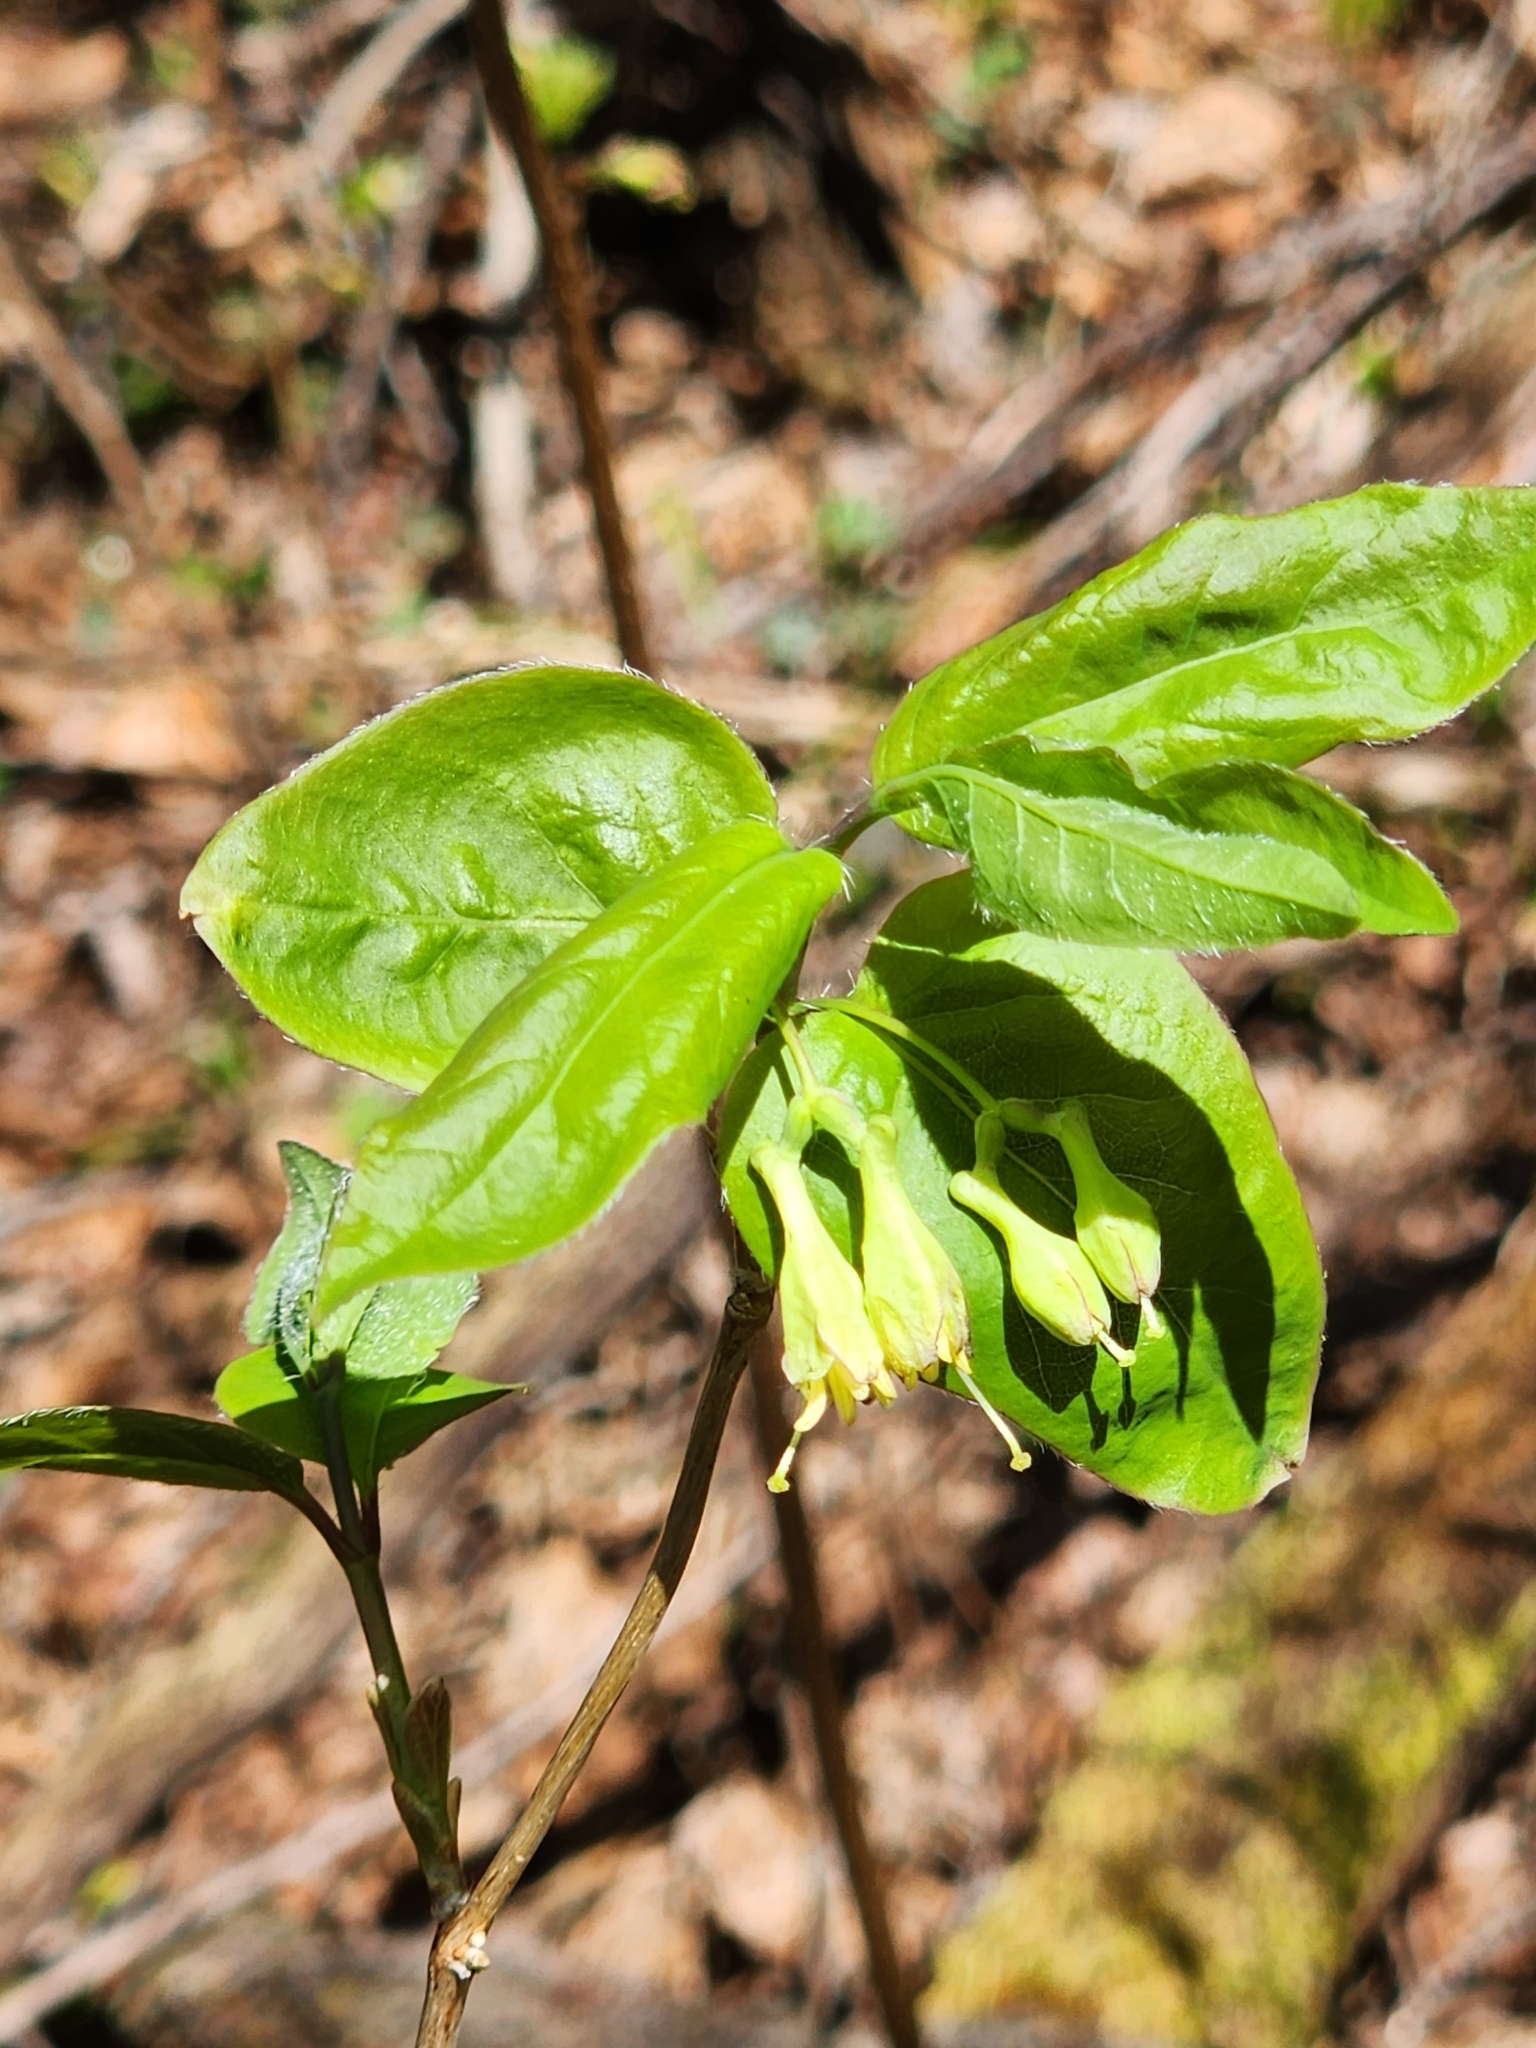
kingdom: Plantae
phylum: Tracheophyta
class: Magnoliopsida
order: Dipsacales
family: Caprifoliaceae
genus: Lonicera
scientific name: Lonicera canadensis
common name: American fly-honeysuckle
